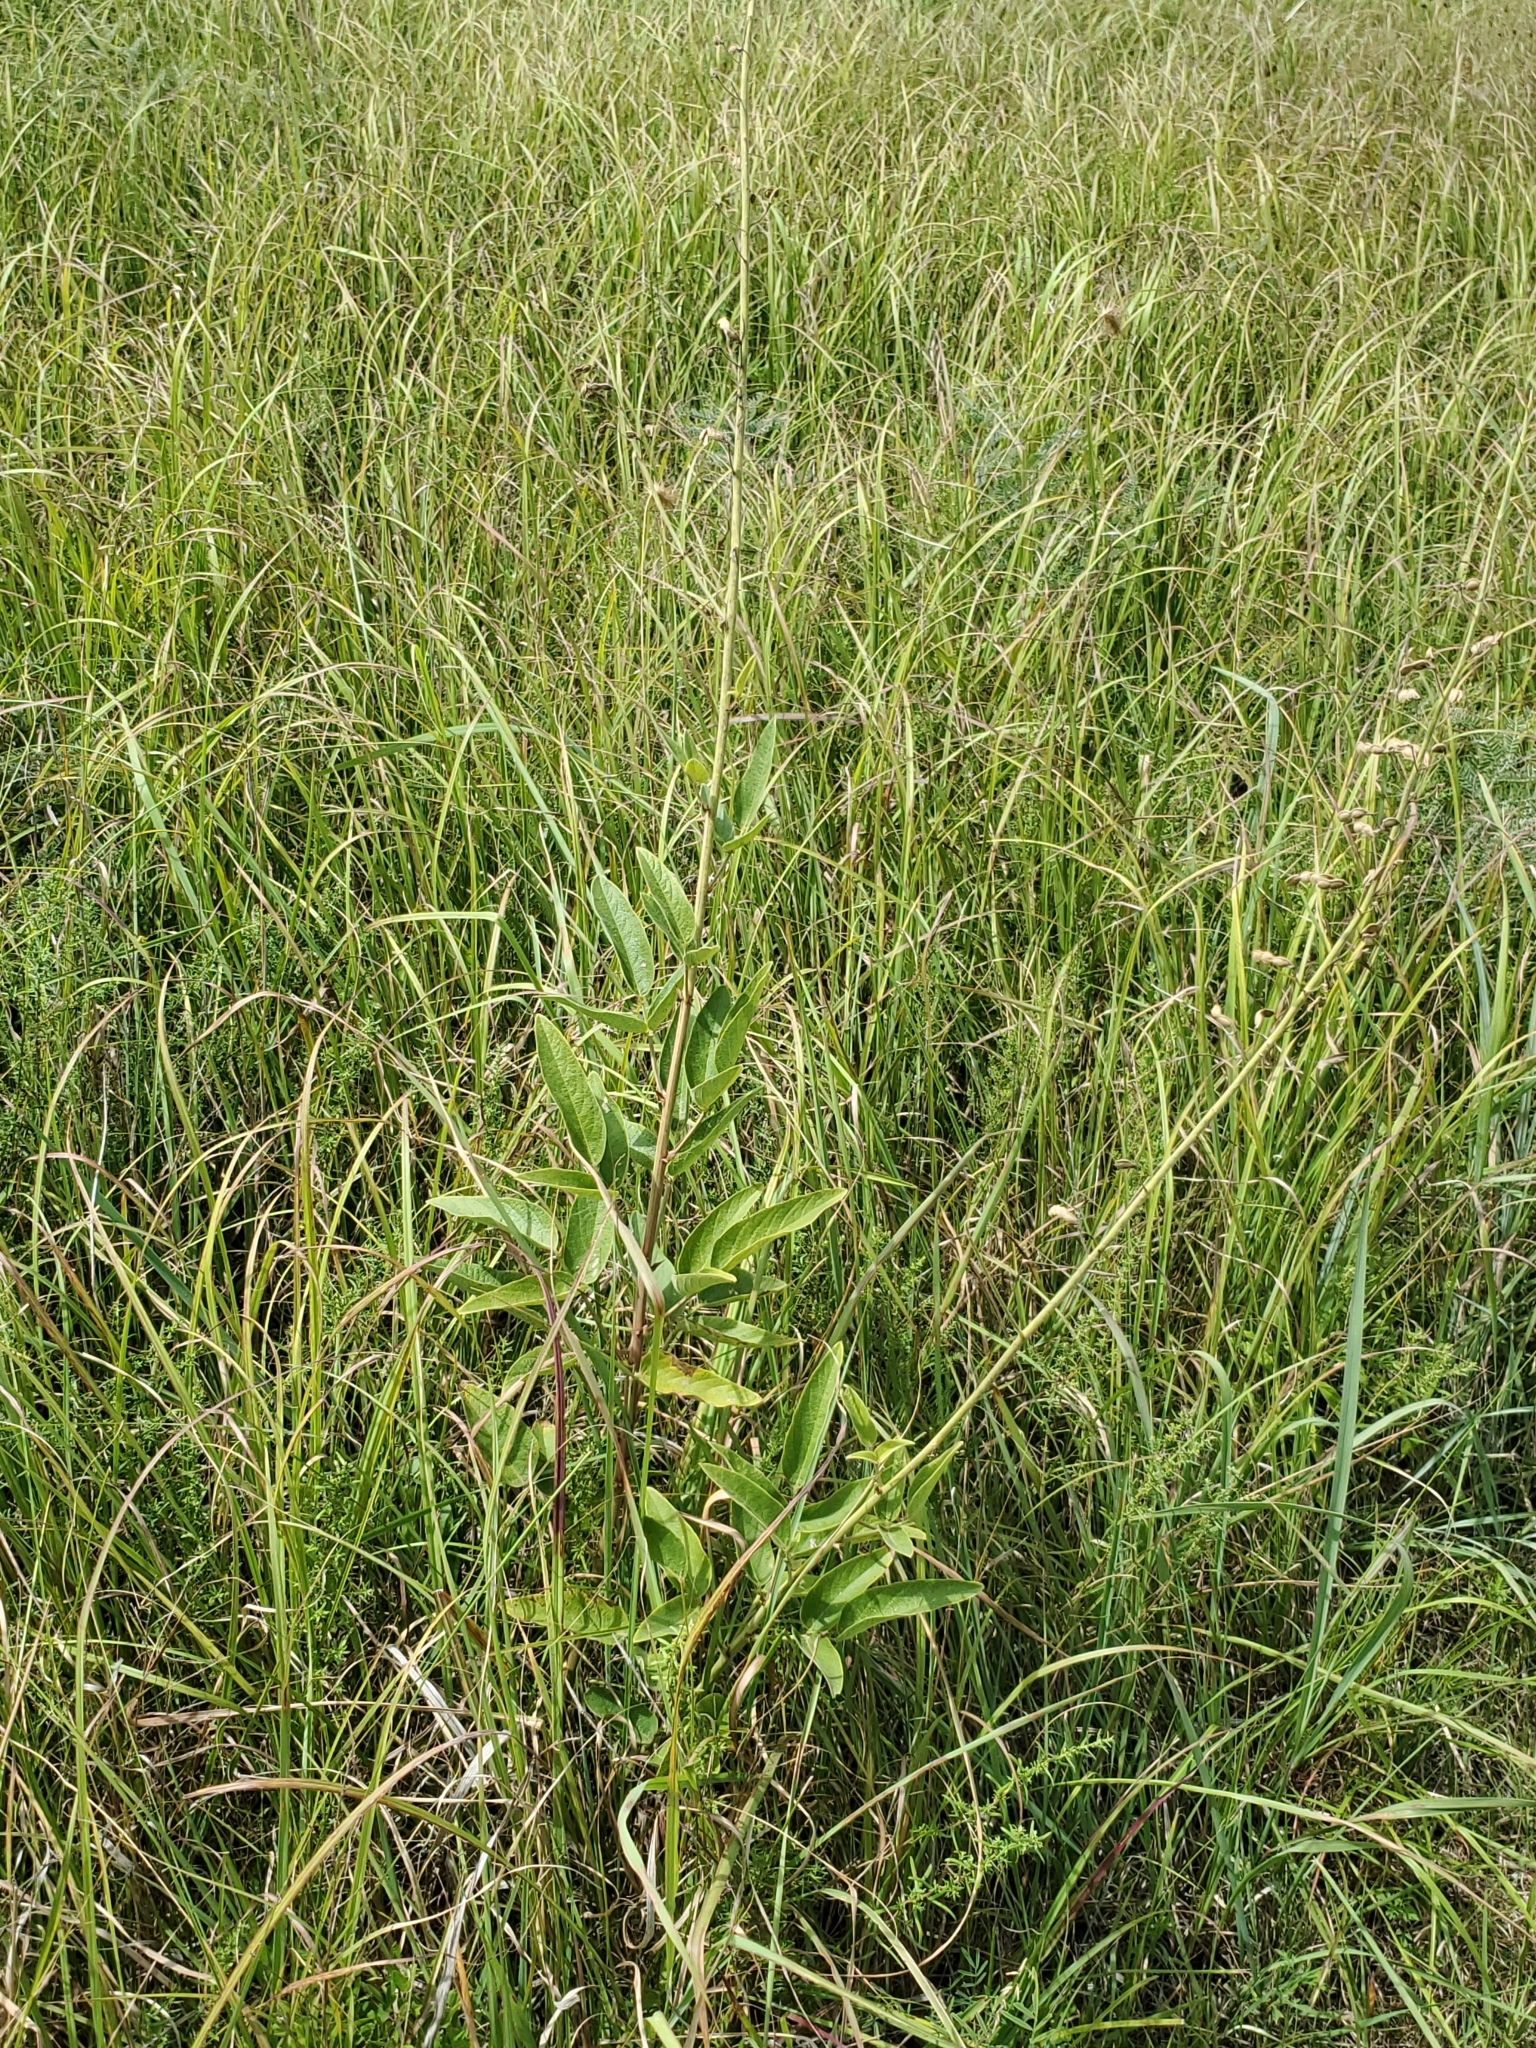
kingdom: Plantae
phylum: Tracheophyta
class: Magnoliopsida
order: Fabales
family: Fabaceae
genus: Desmodium
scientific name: Desmodium illinoense
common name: Illinois tick-clover
